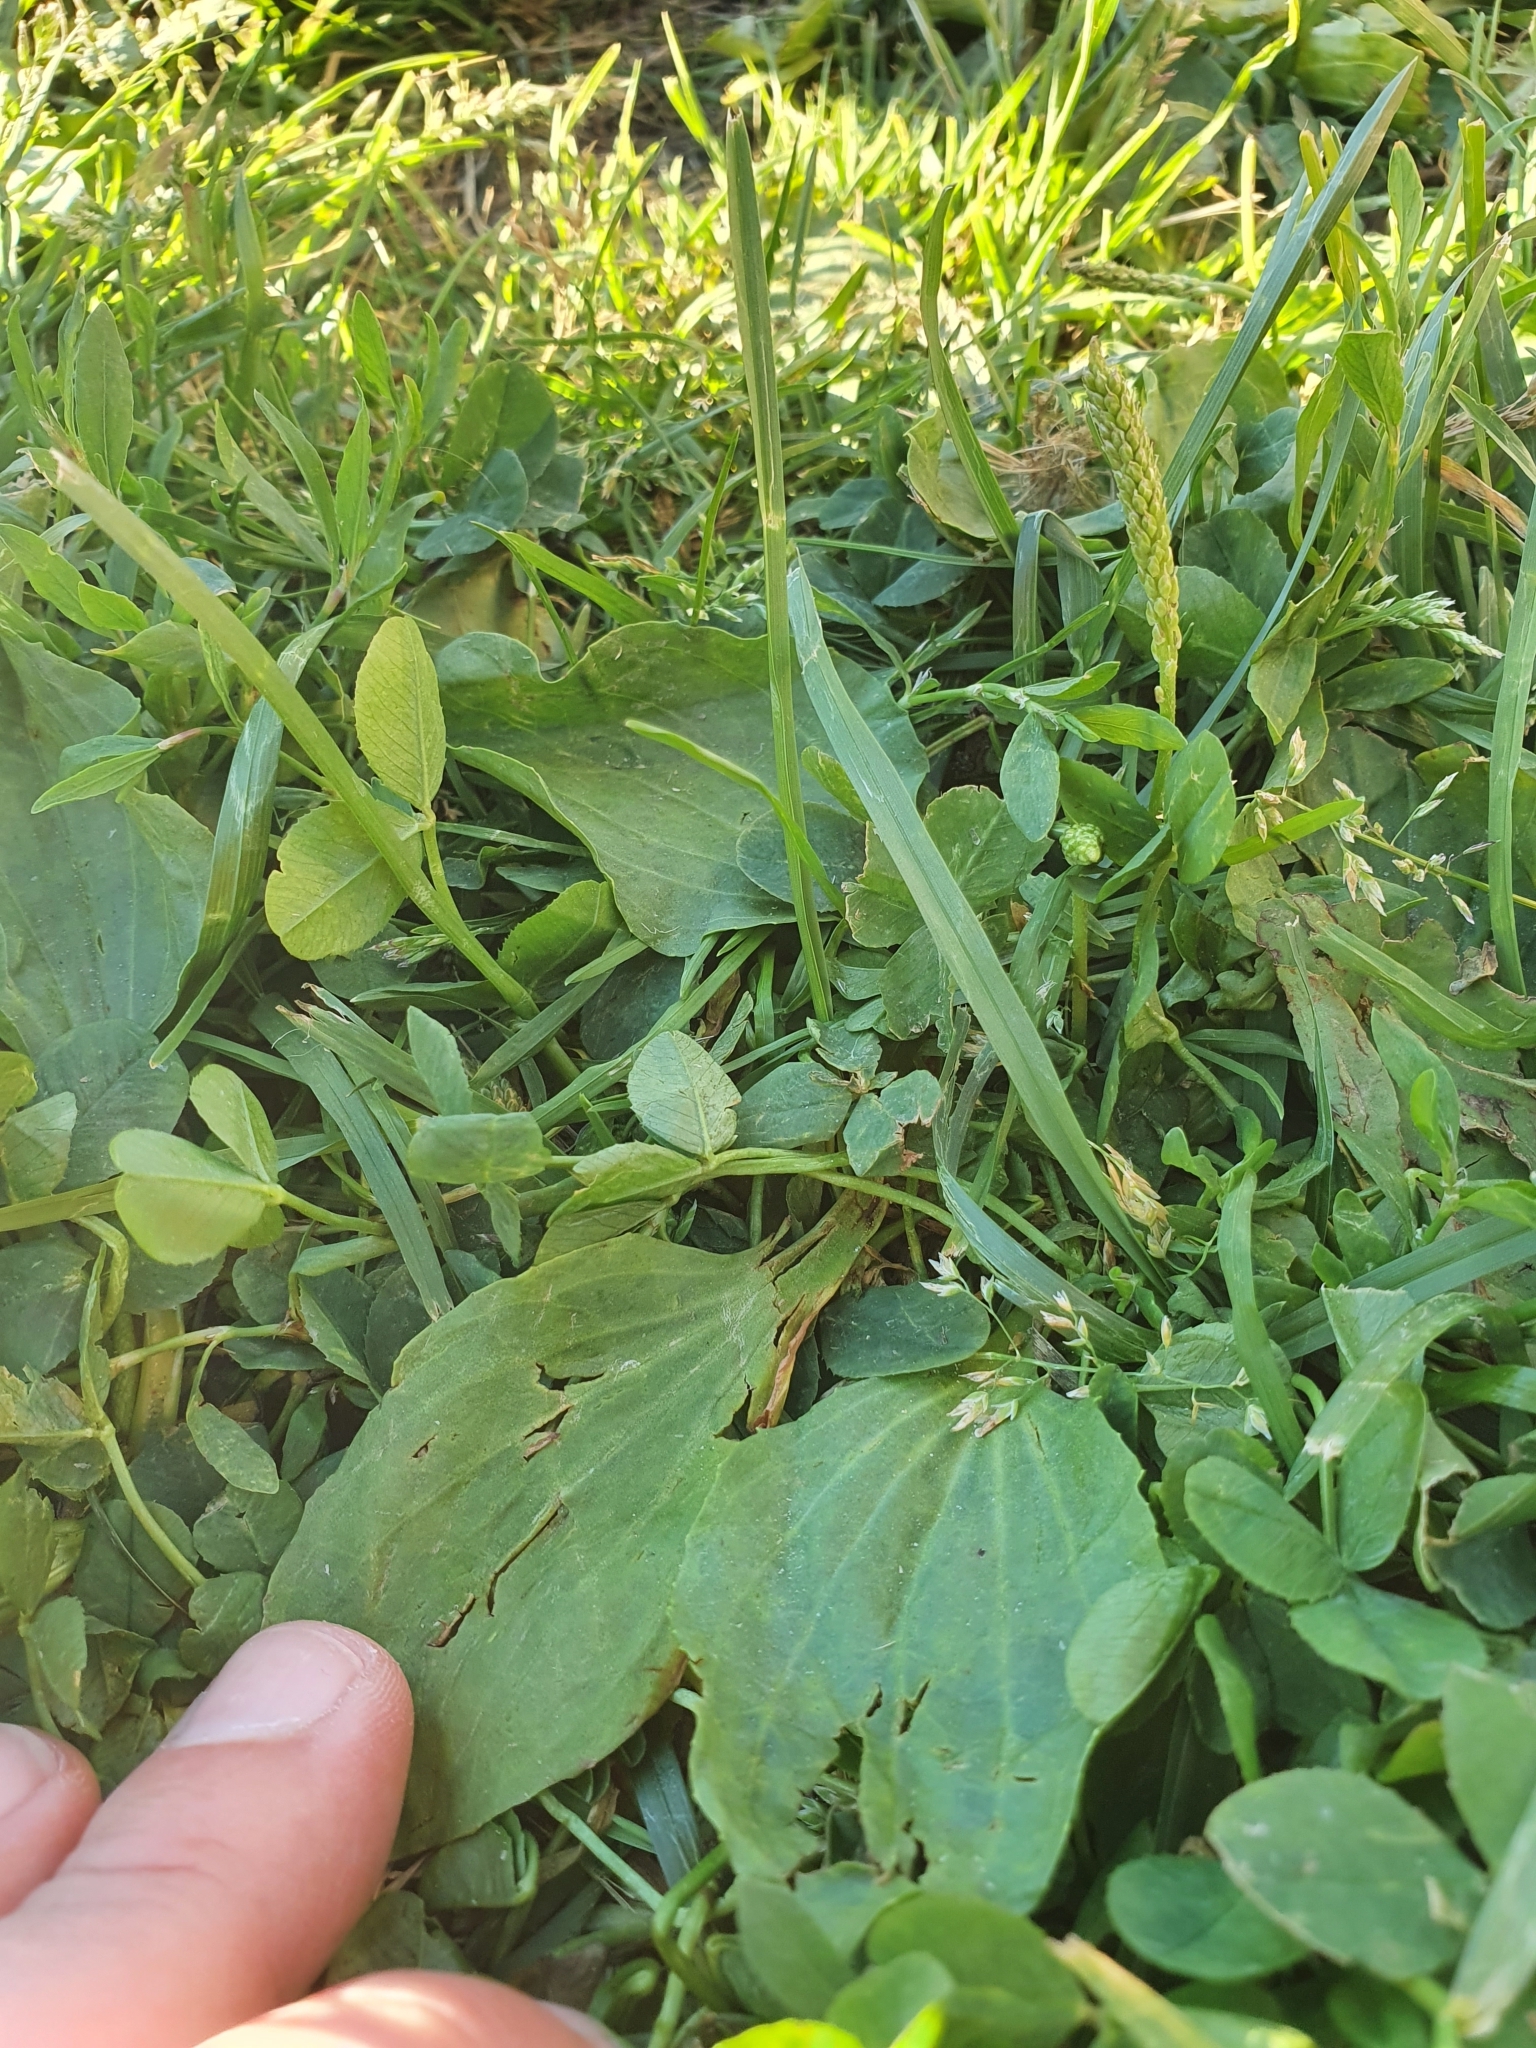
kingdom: Plantae
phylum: Tracheophyta
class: Magnoliopsida
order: Lamiales
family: Plantaginaceae
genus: Plantago
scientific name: Plantago major
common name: Common plantain
